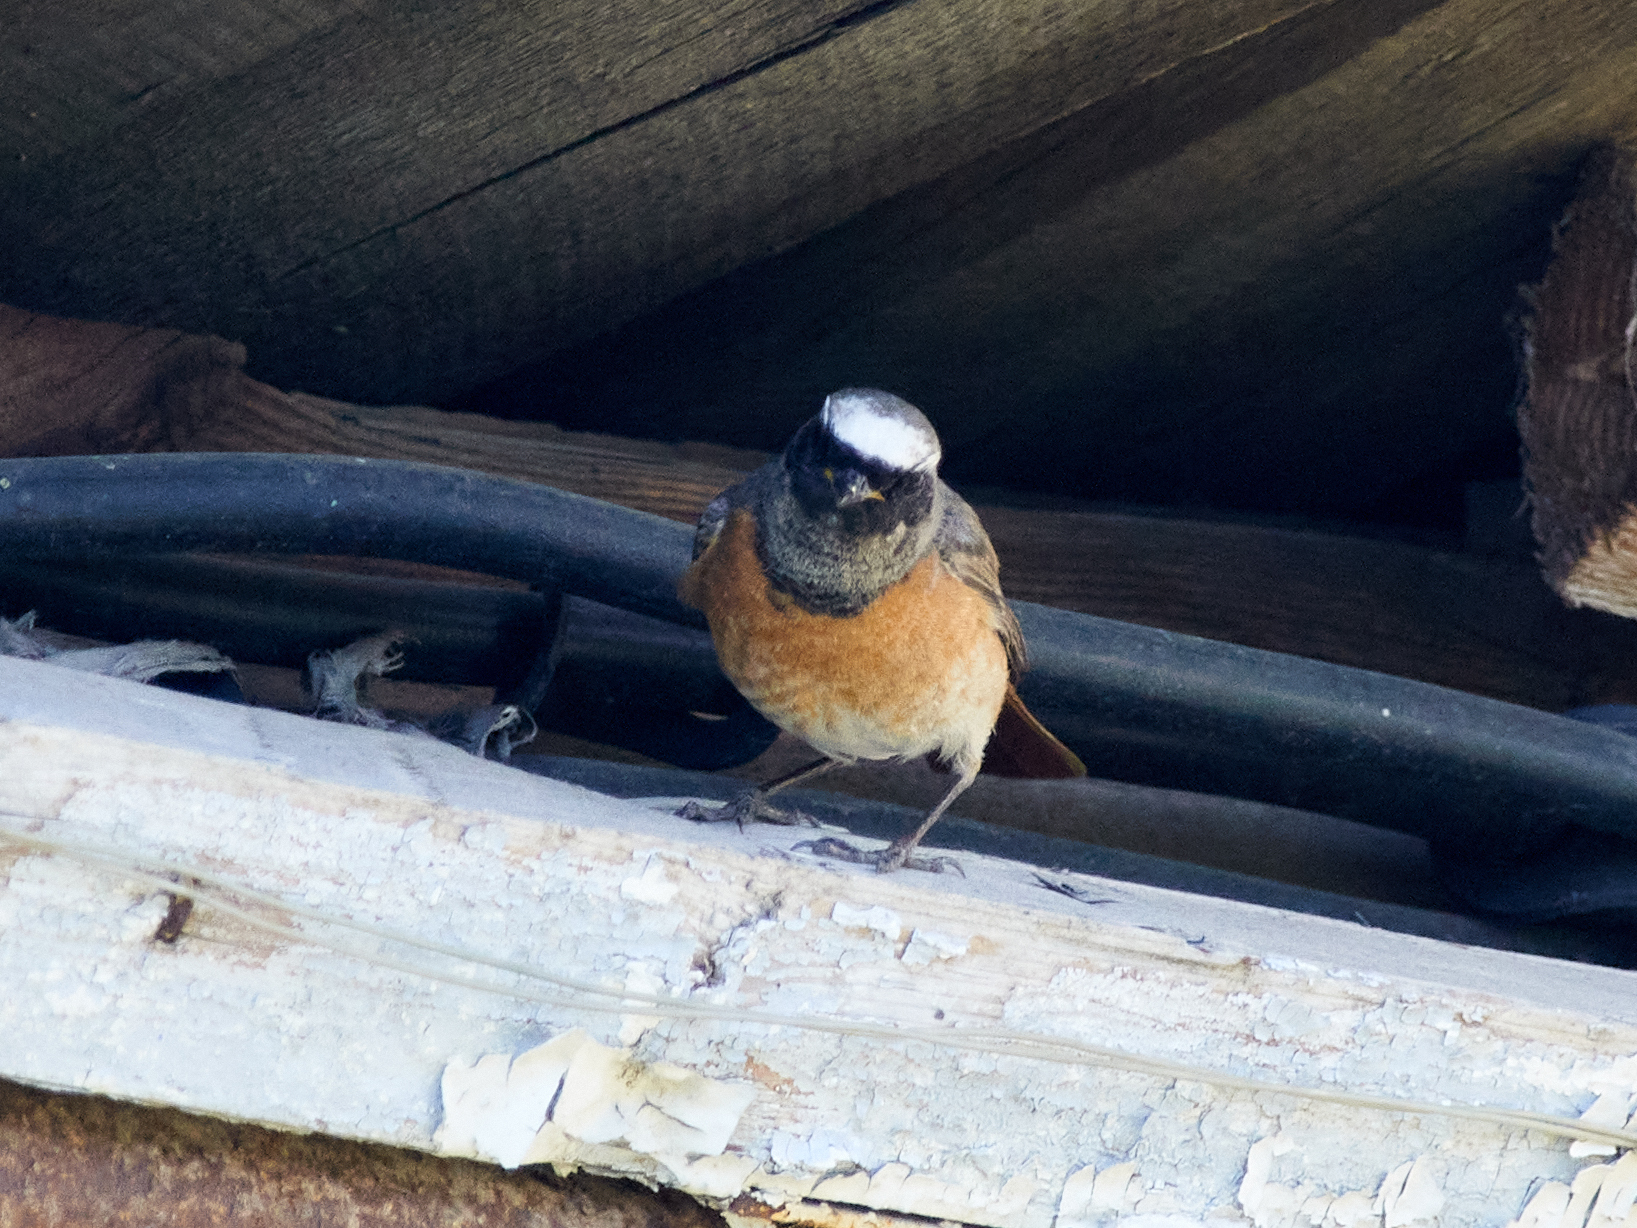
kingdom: Animalia
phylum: Chordata
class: Aves
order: Passeriformes
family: Muscicapidae
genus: Phoenicurus
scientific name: Phoenicurus phoenicurus
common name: Common redstart
